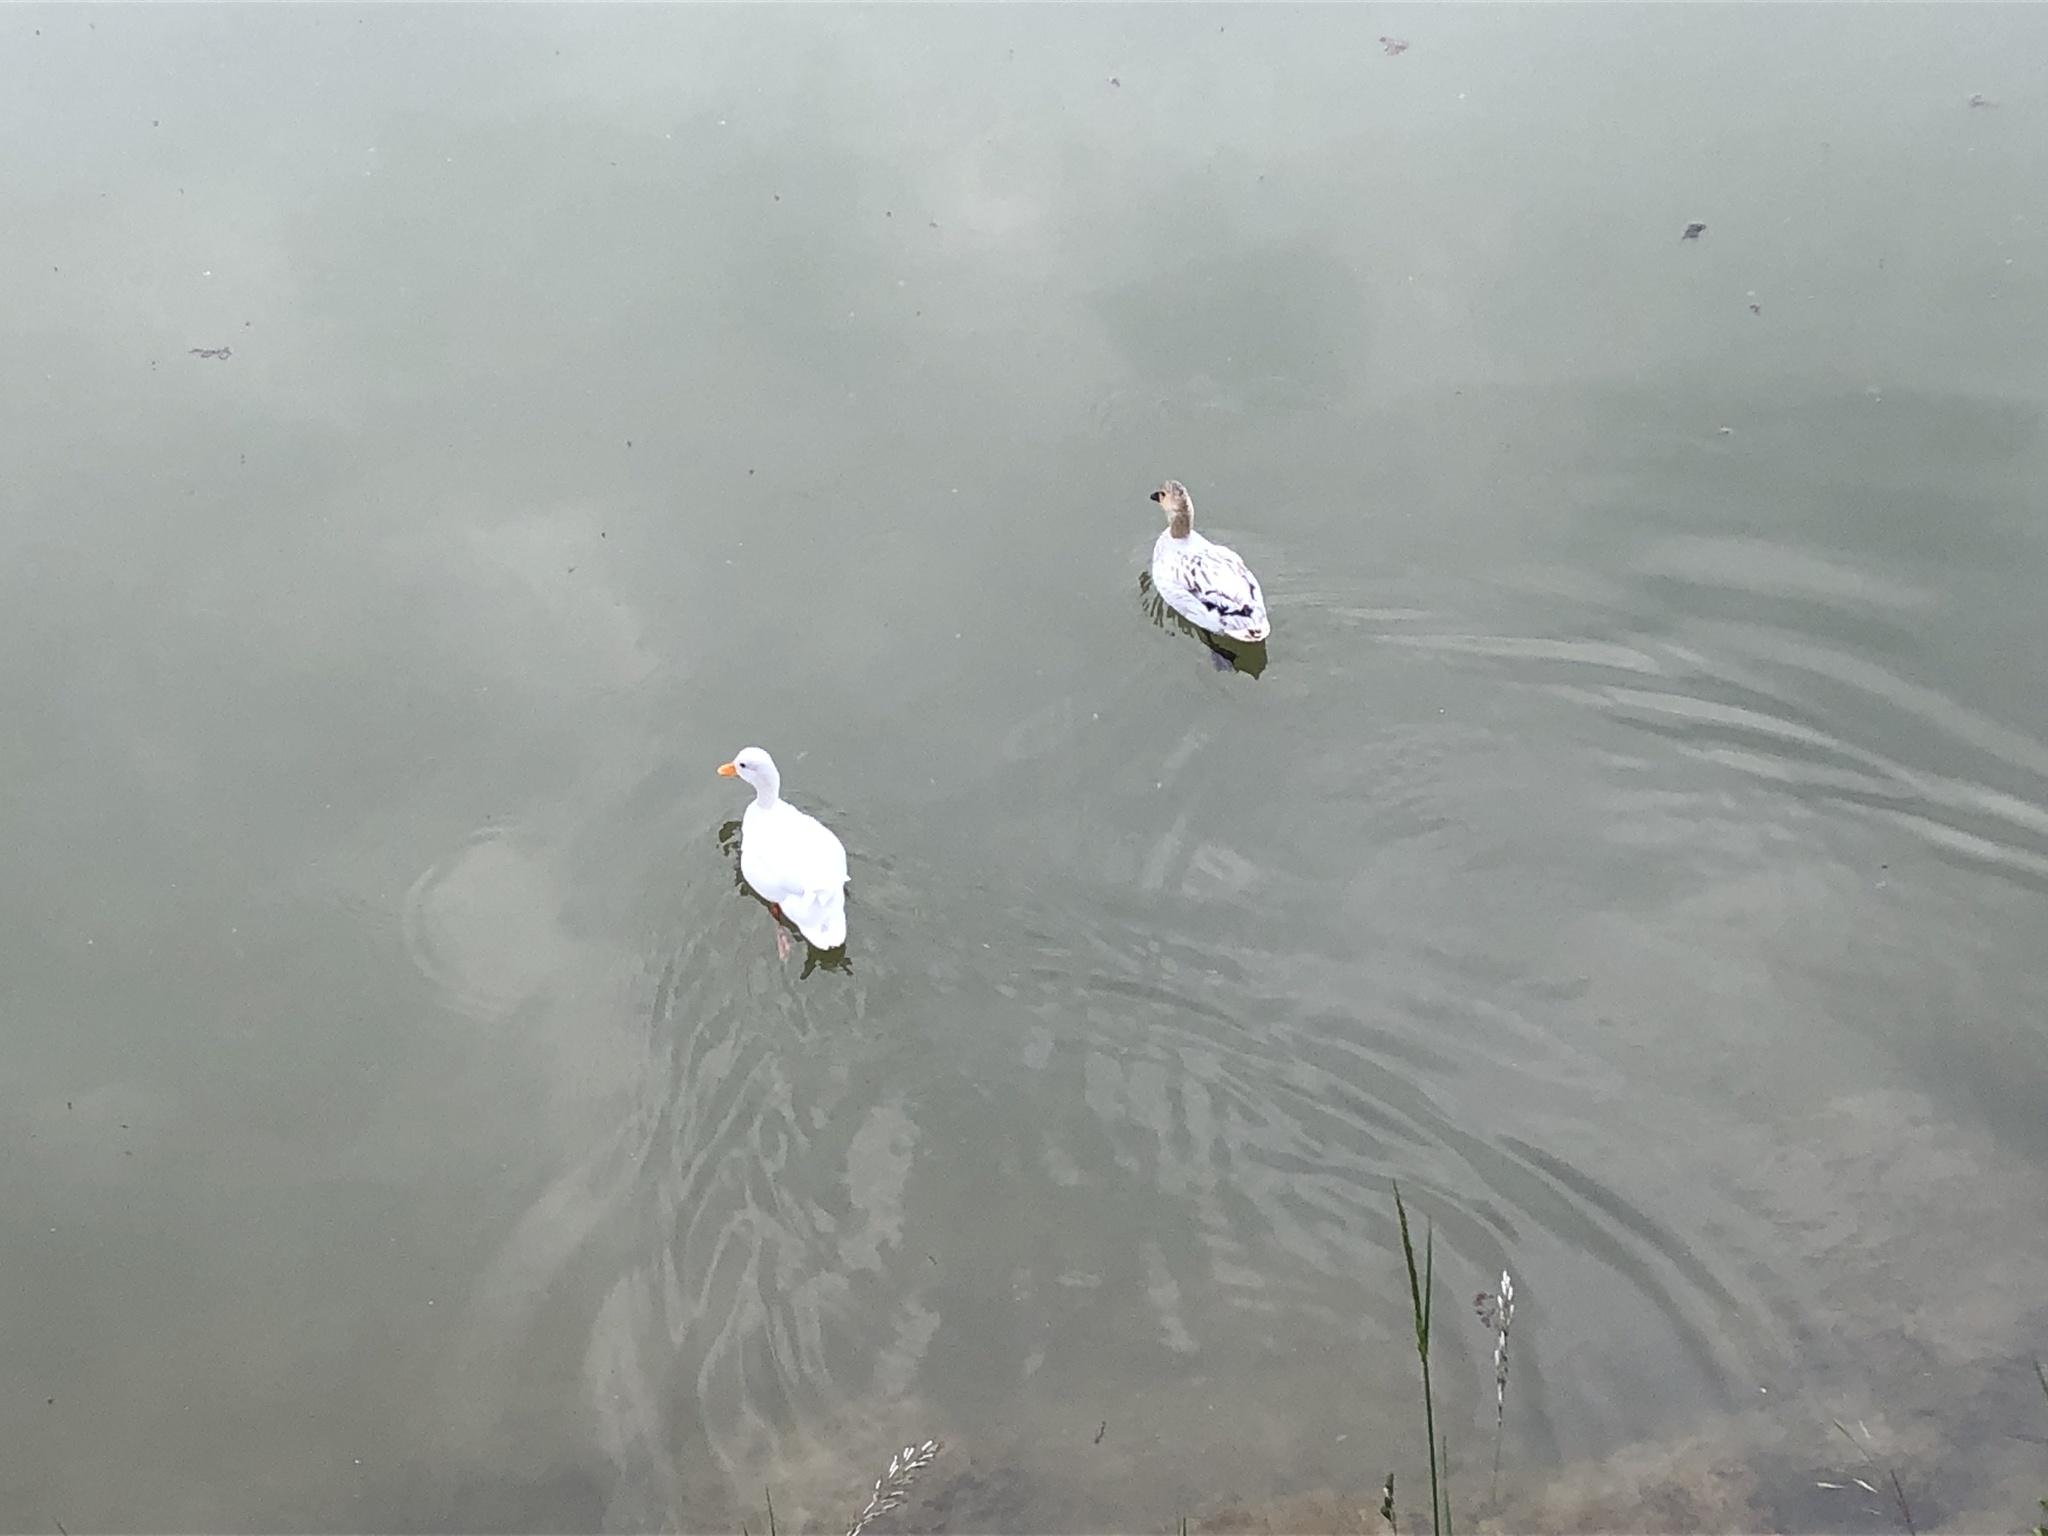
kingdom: Animalia
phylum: Chordata
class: Aves
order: Anseriformes
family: Anatidae
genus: Anas
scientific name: Anas platyrhynchos
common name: Mallard
